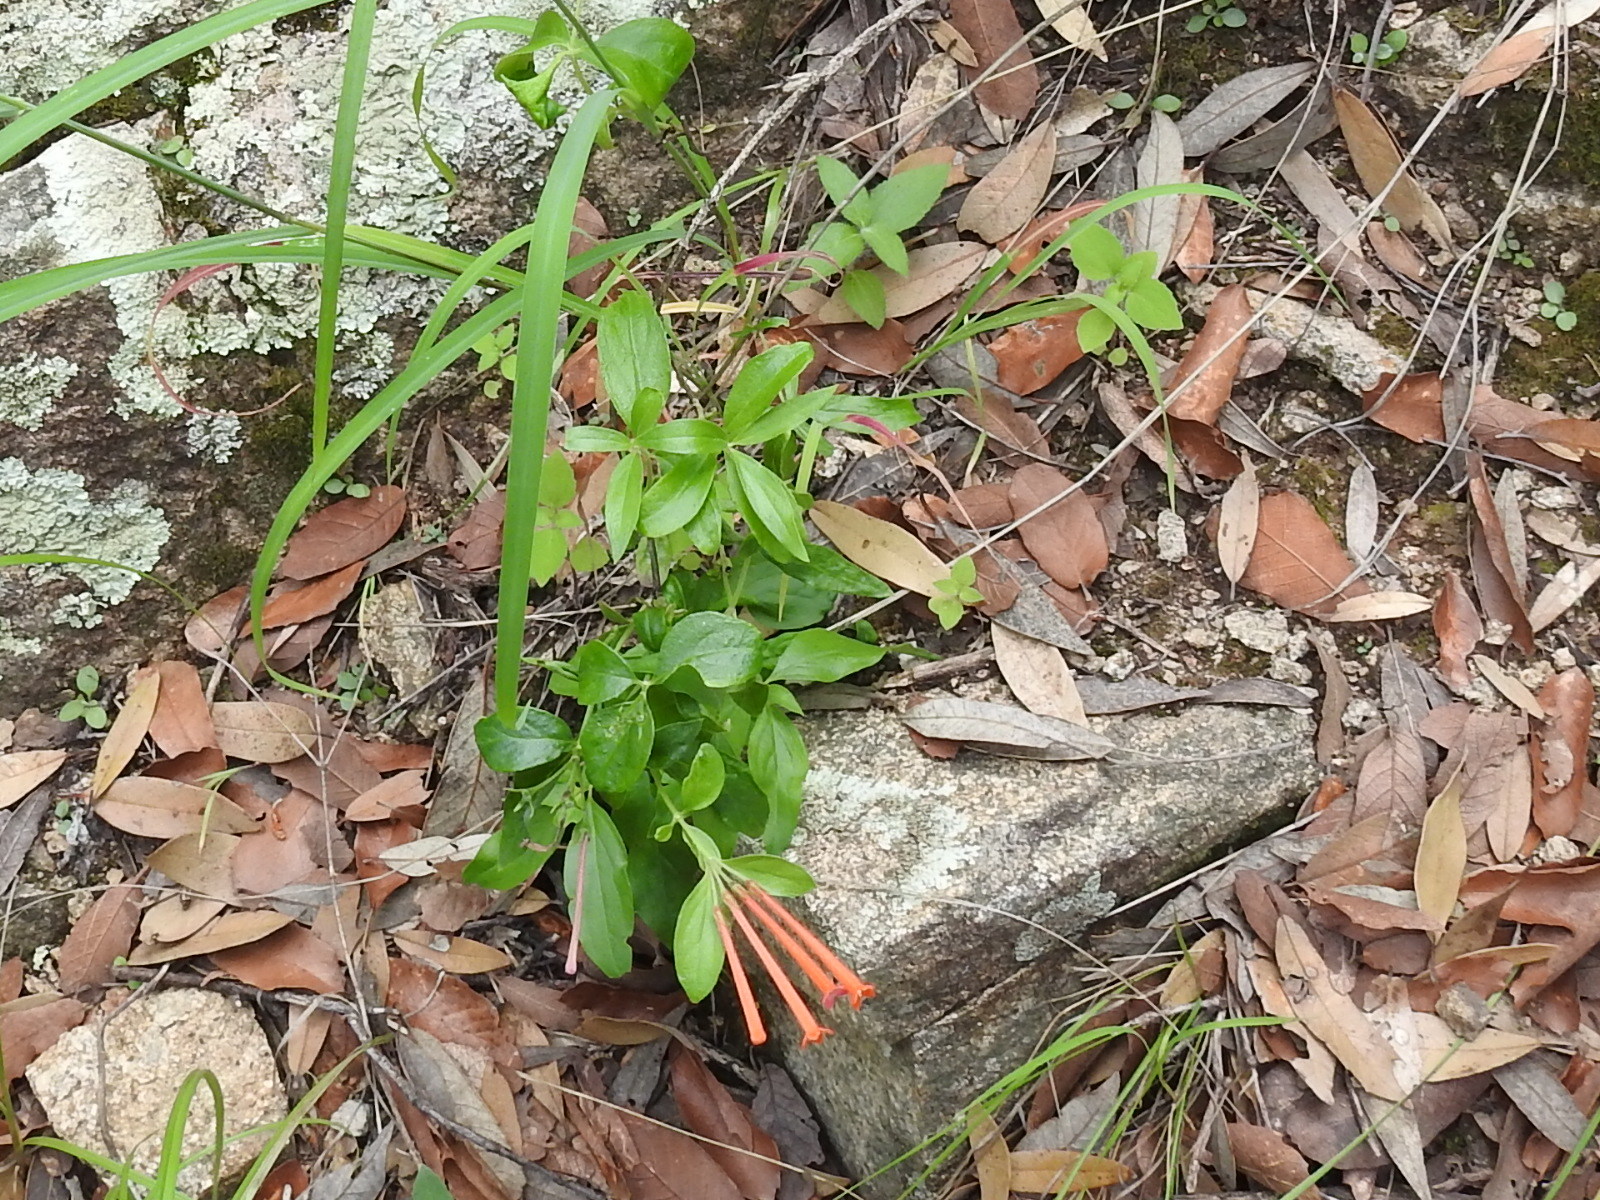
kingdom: Plantae
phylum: Tracheophyta
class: Magnoliopsida
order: Gentianales
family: Rubiaceae
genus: Bouvardia
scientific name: Bouvardia ternifolia
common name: Scarlet bouvardia
